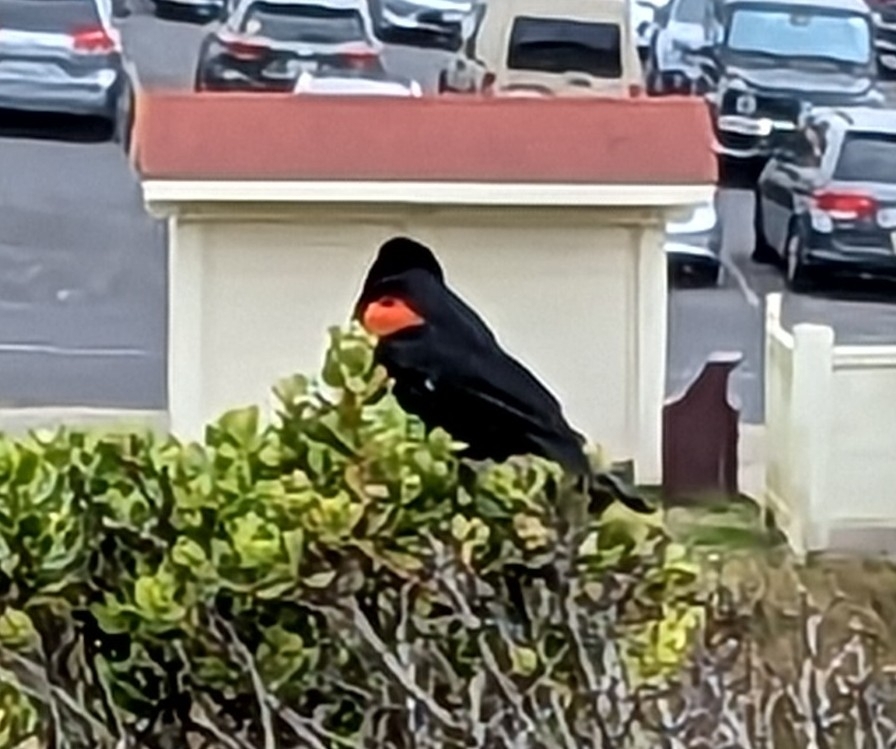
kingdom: Animalia
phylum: Chordata
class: Aves
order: Passeriformes
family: Icteridae
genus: Agelaius
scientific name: Agelaius phoeniceus
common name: Red-winged blackbird
